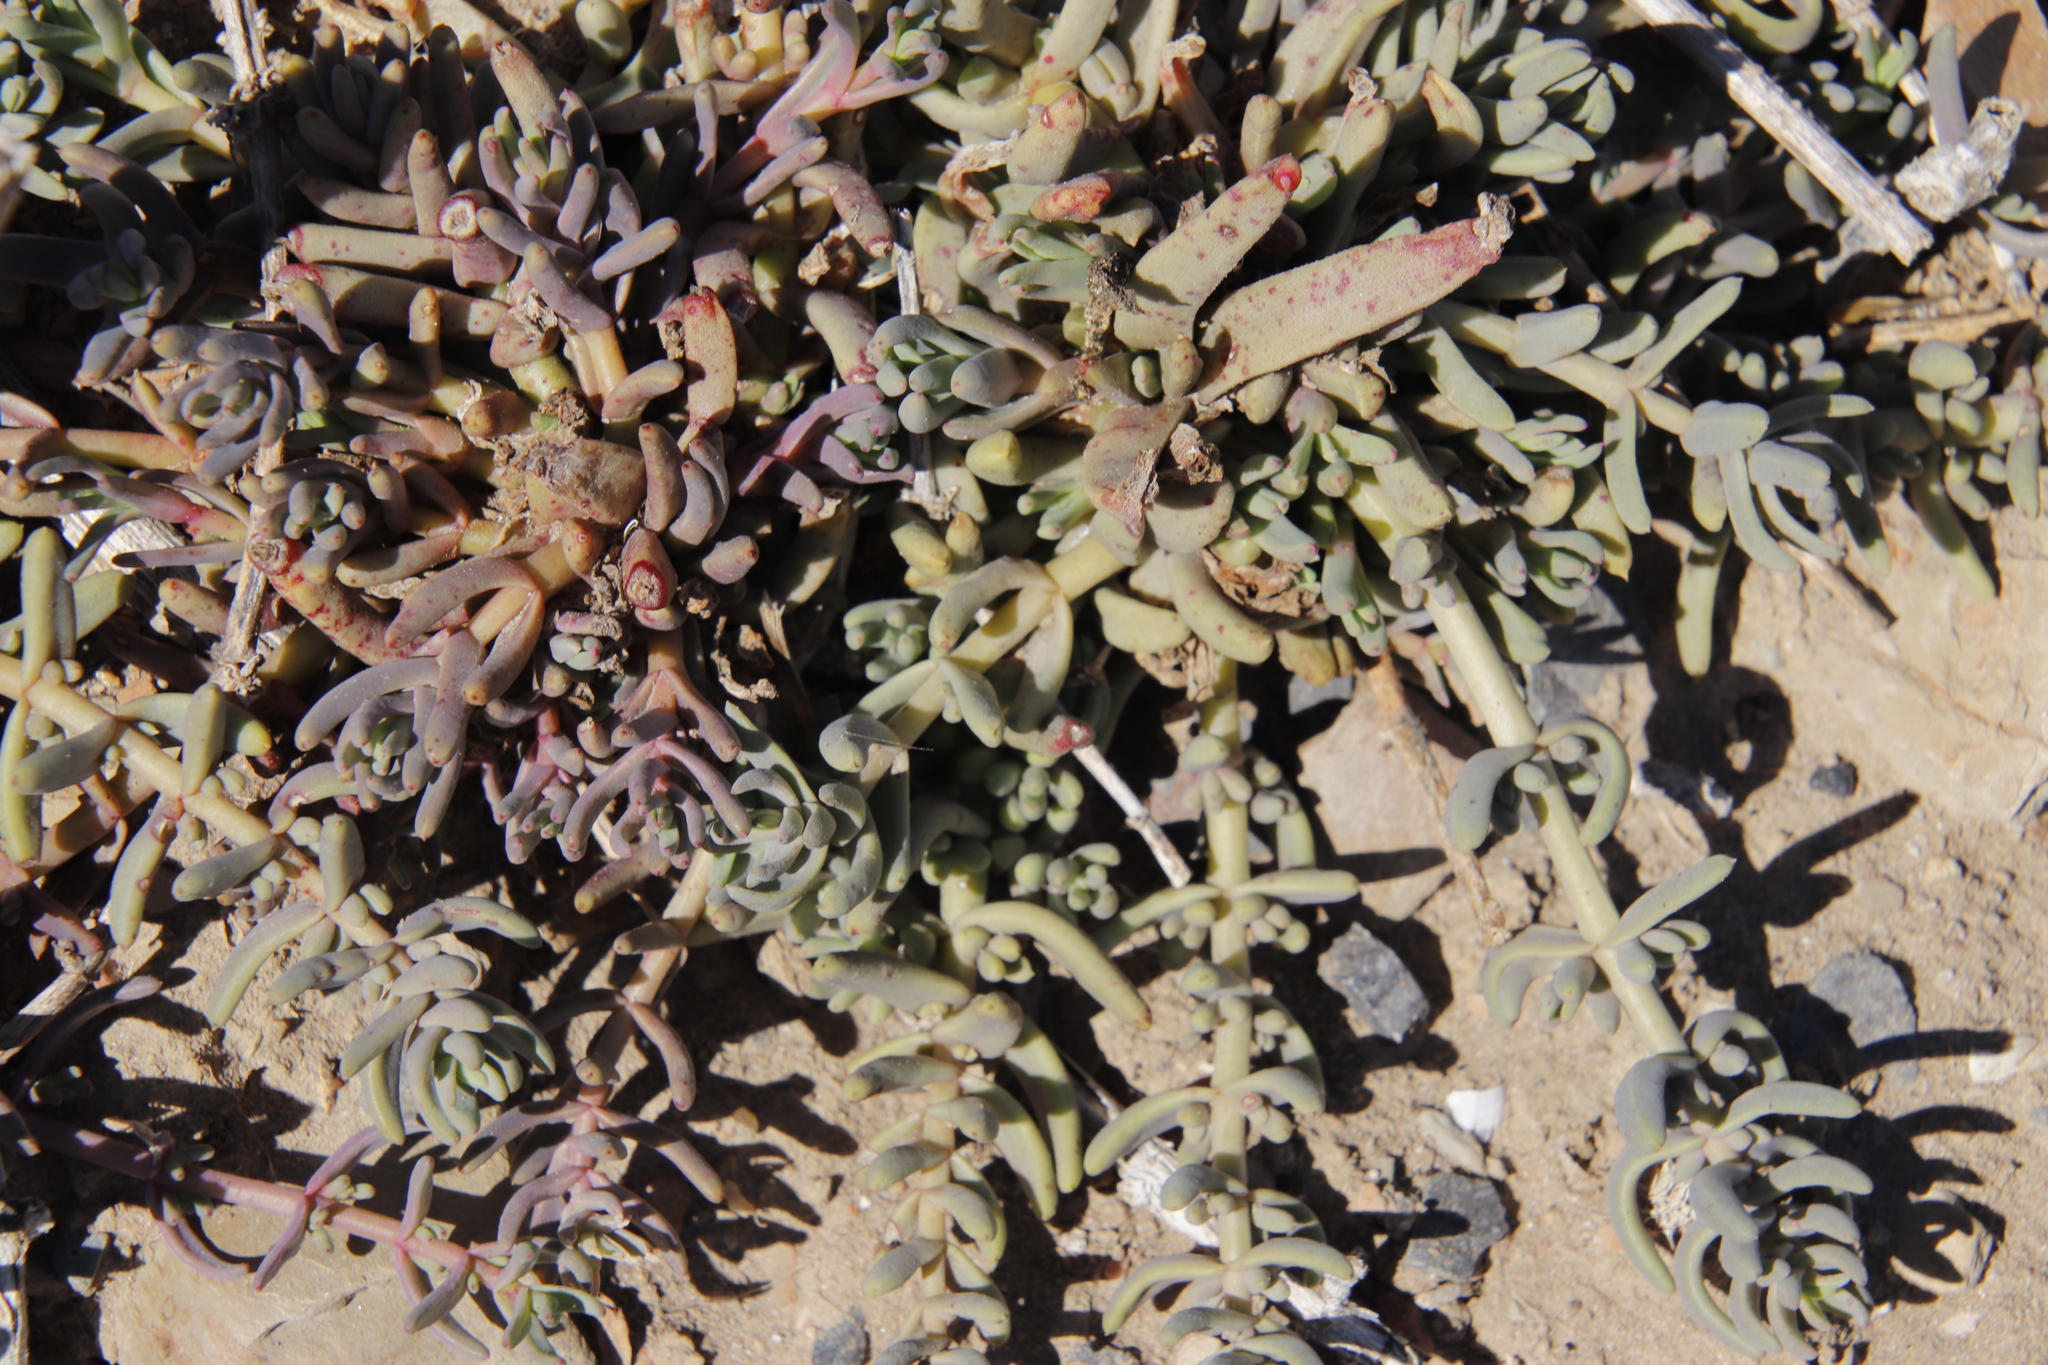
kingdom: Plantae
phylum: Tracheophyta
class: Magnoliopsida
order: Caryophyllales
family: Aizoaceae
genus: Mesembryanthemum
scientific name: Mesembryanthemum pallens
